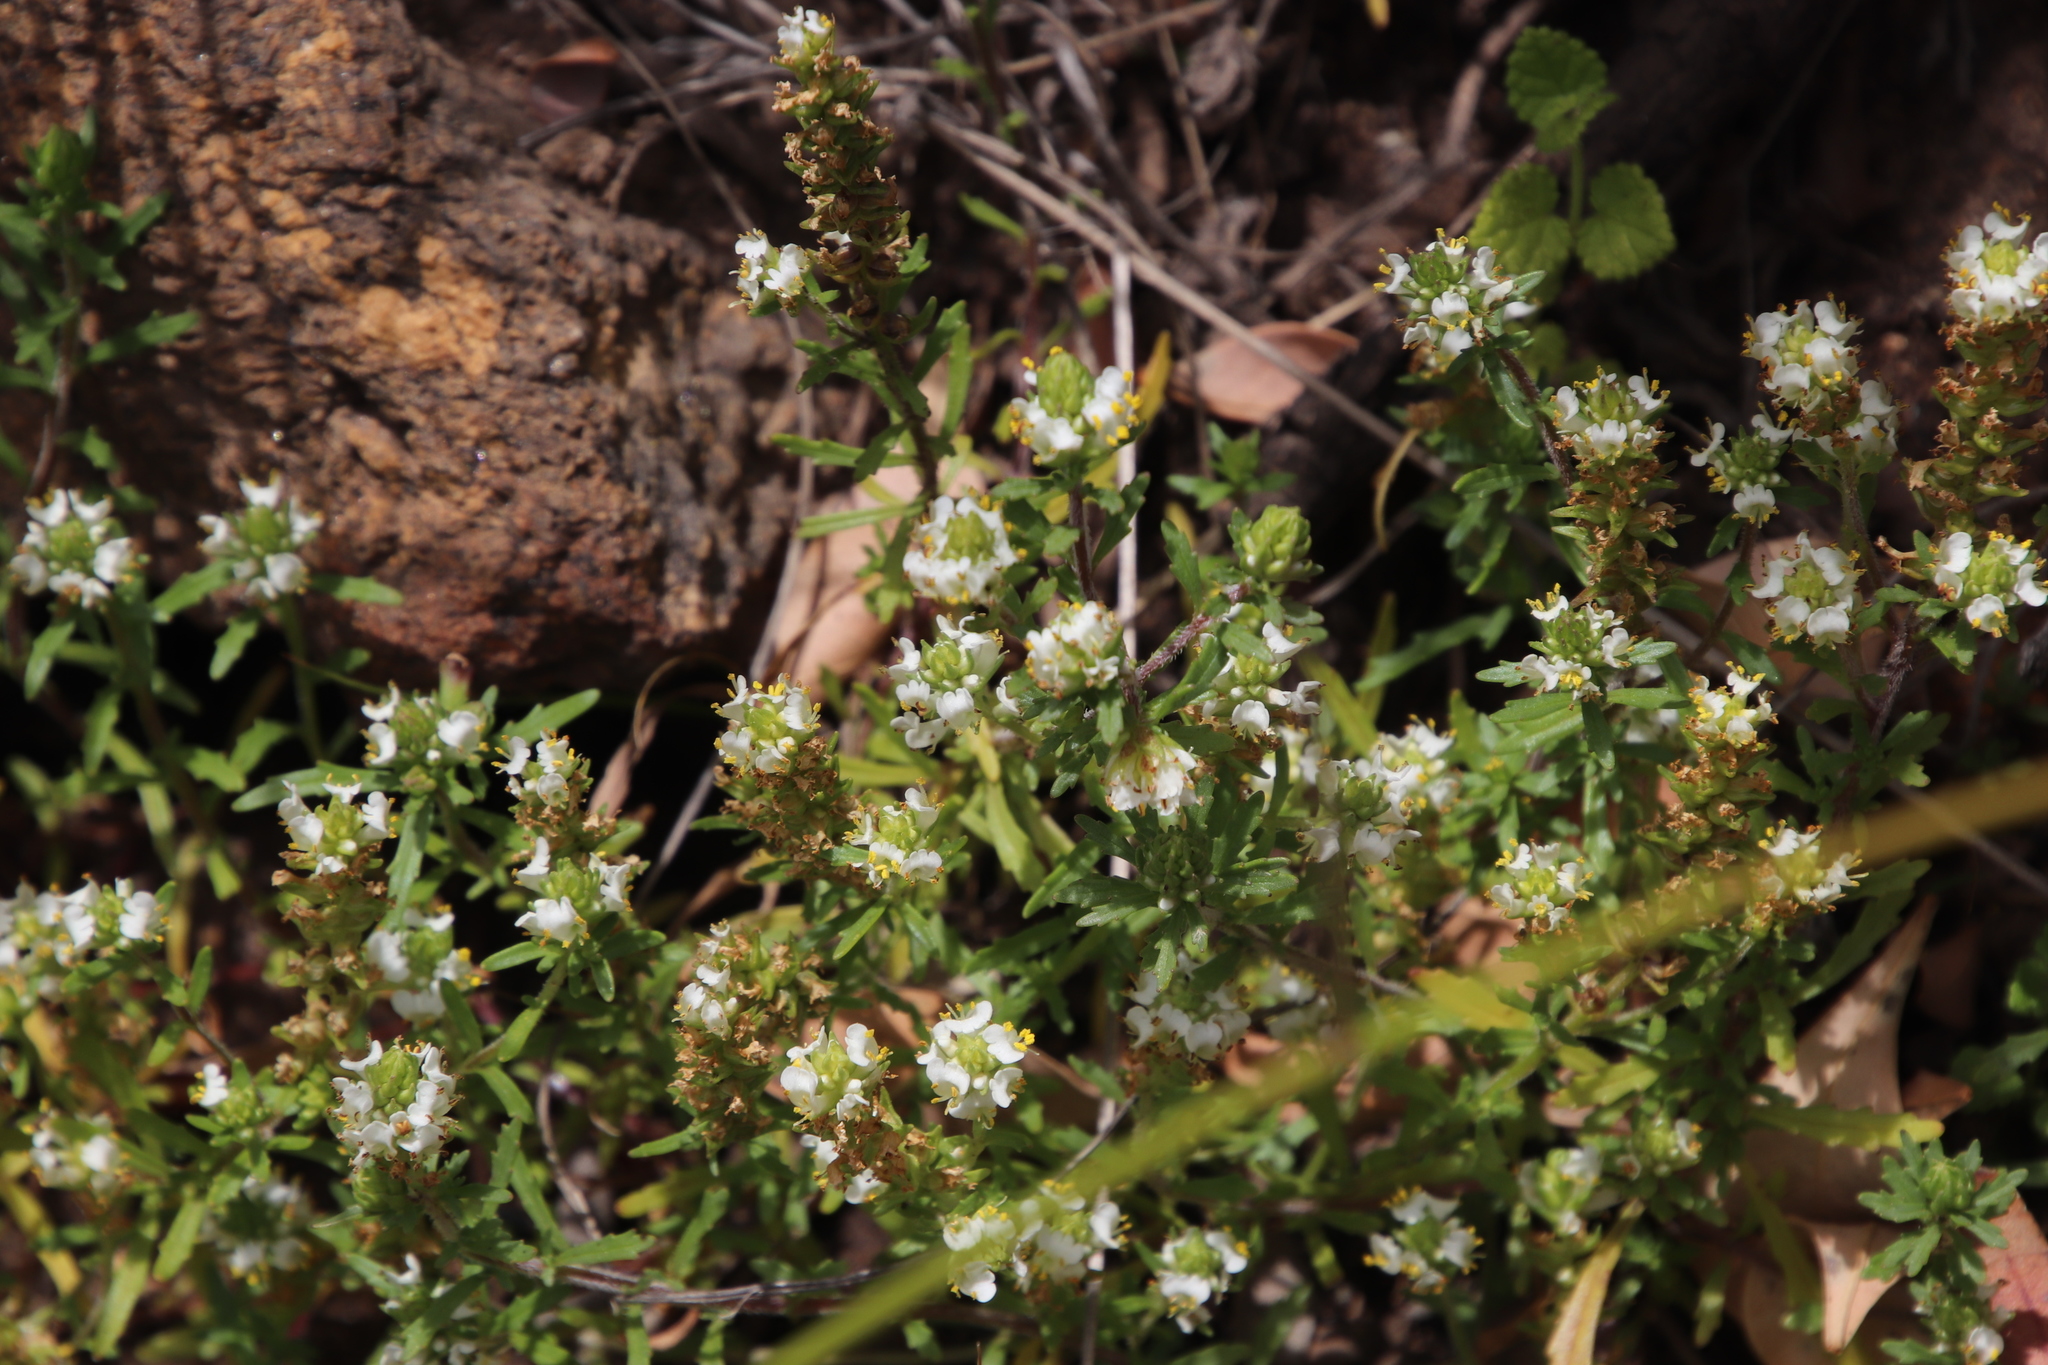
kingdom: Plantae
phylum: Tracheophyta
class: Magnoliopsida
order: Lamiales
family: Scrophulariaceae
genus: Dischisma
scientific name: Dischisma ciliatum
